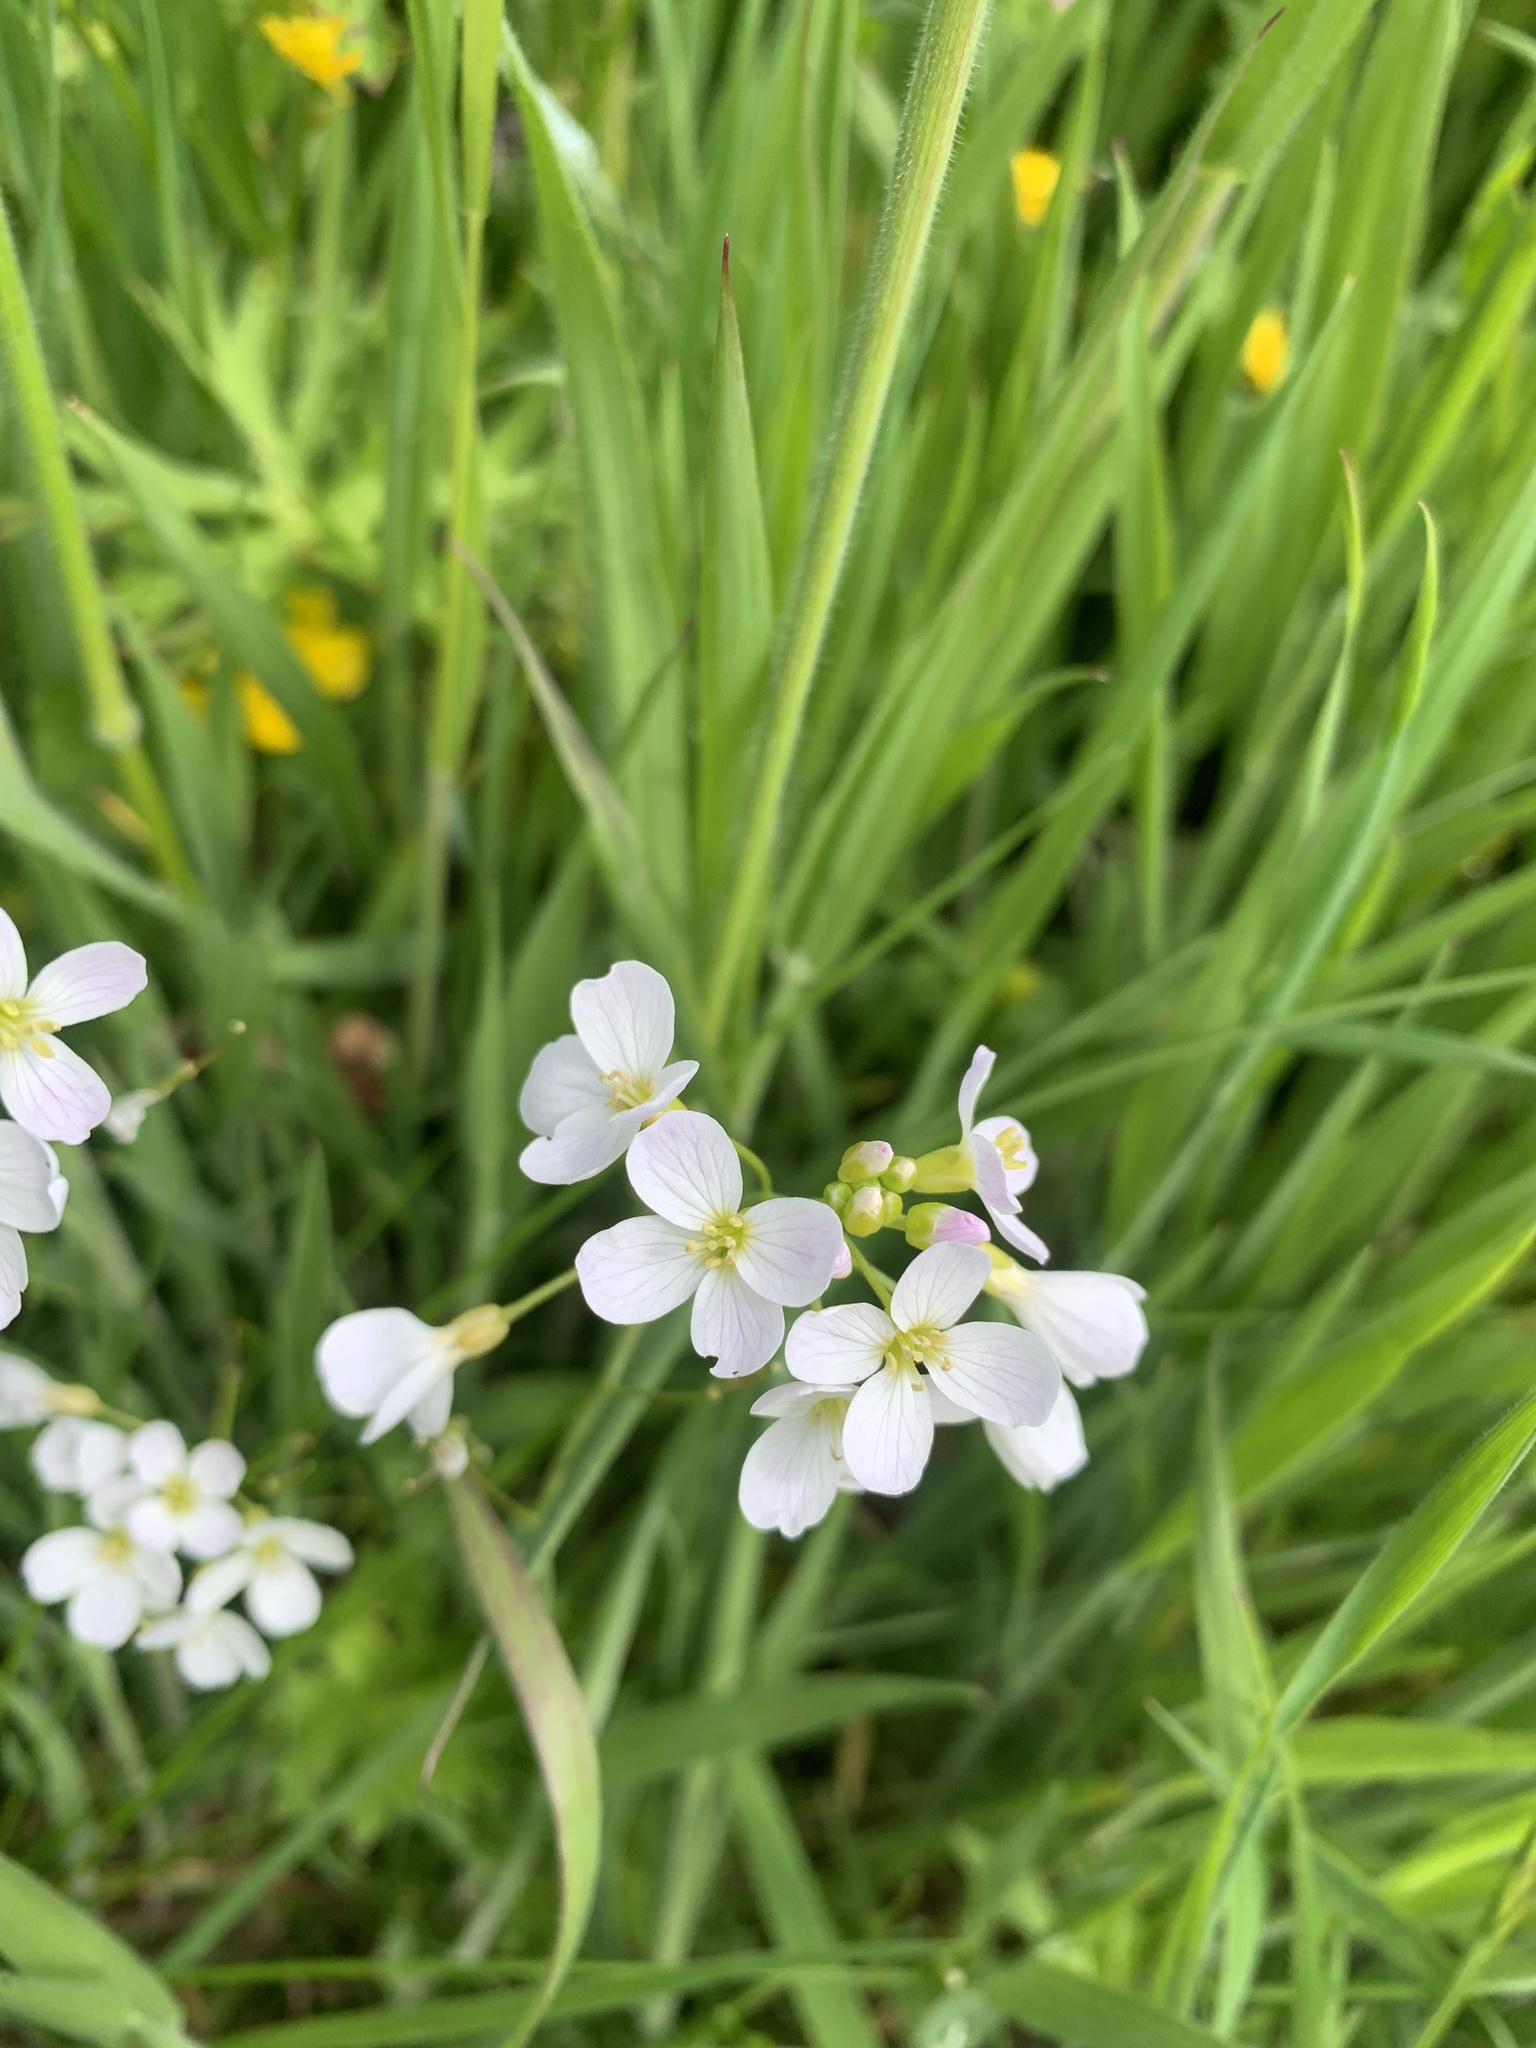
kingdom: Plantae
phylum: Tracheophyta
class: Magnoliopsida
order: Brassicales
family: Brassicaceae
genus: Cardamine
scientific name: Cardamine pratensis
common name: Cuckoo flower
